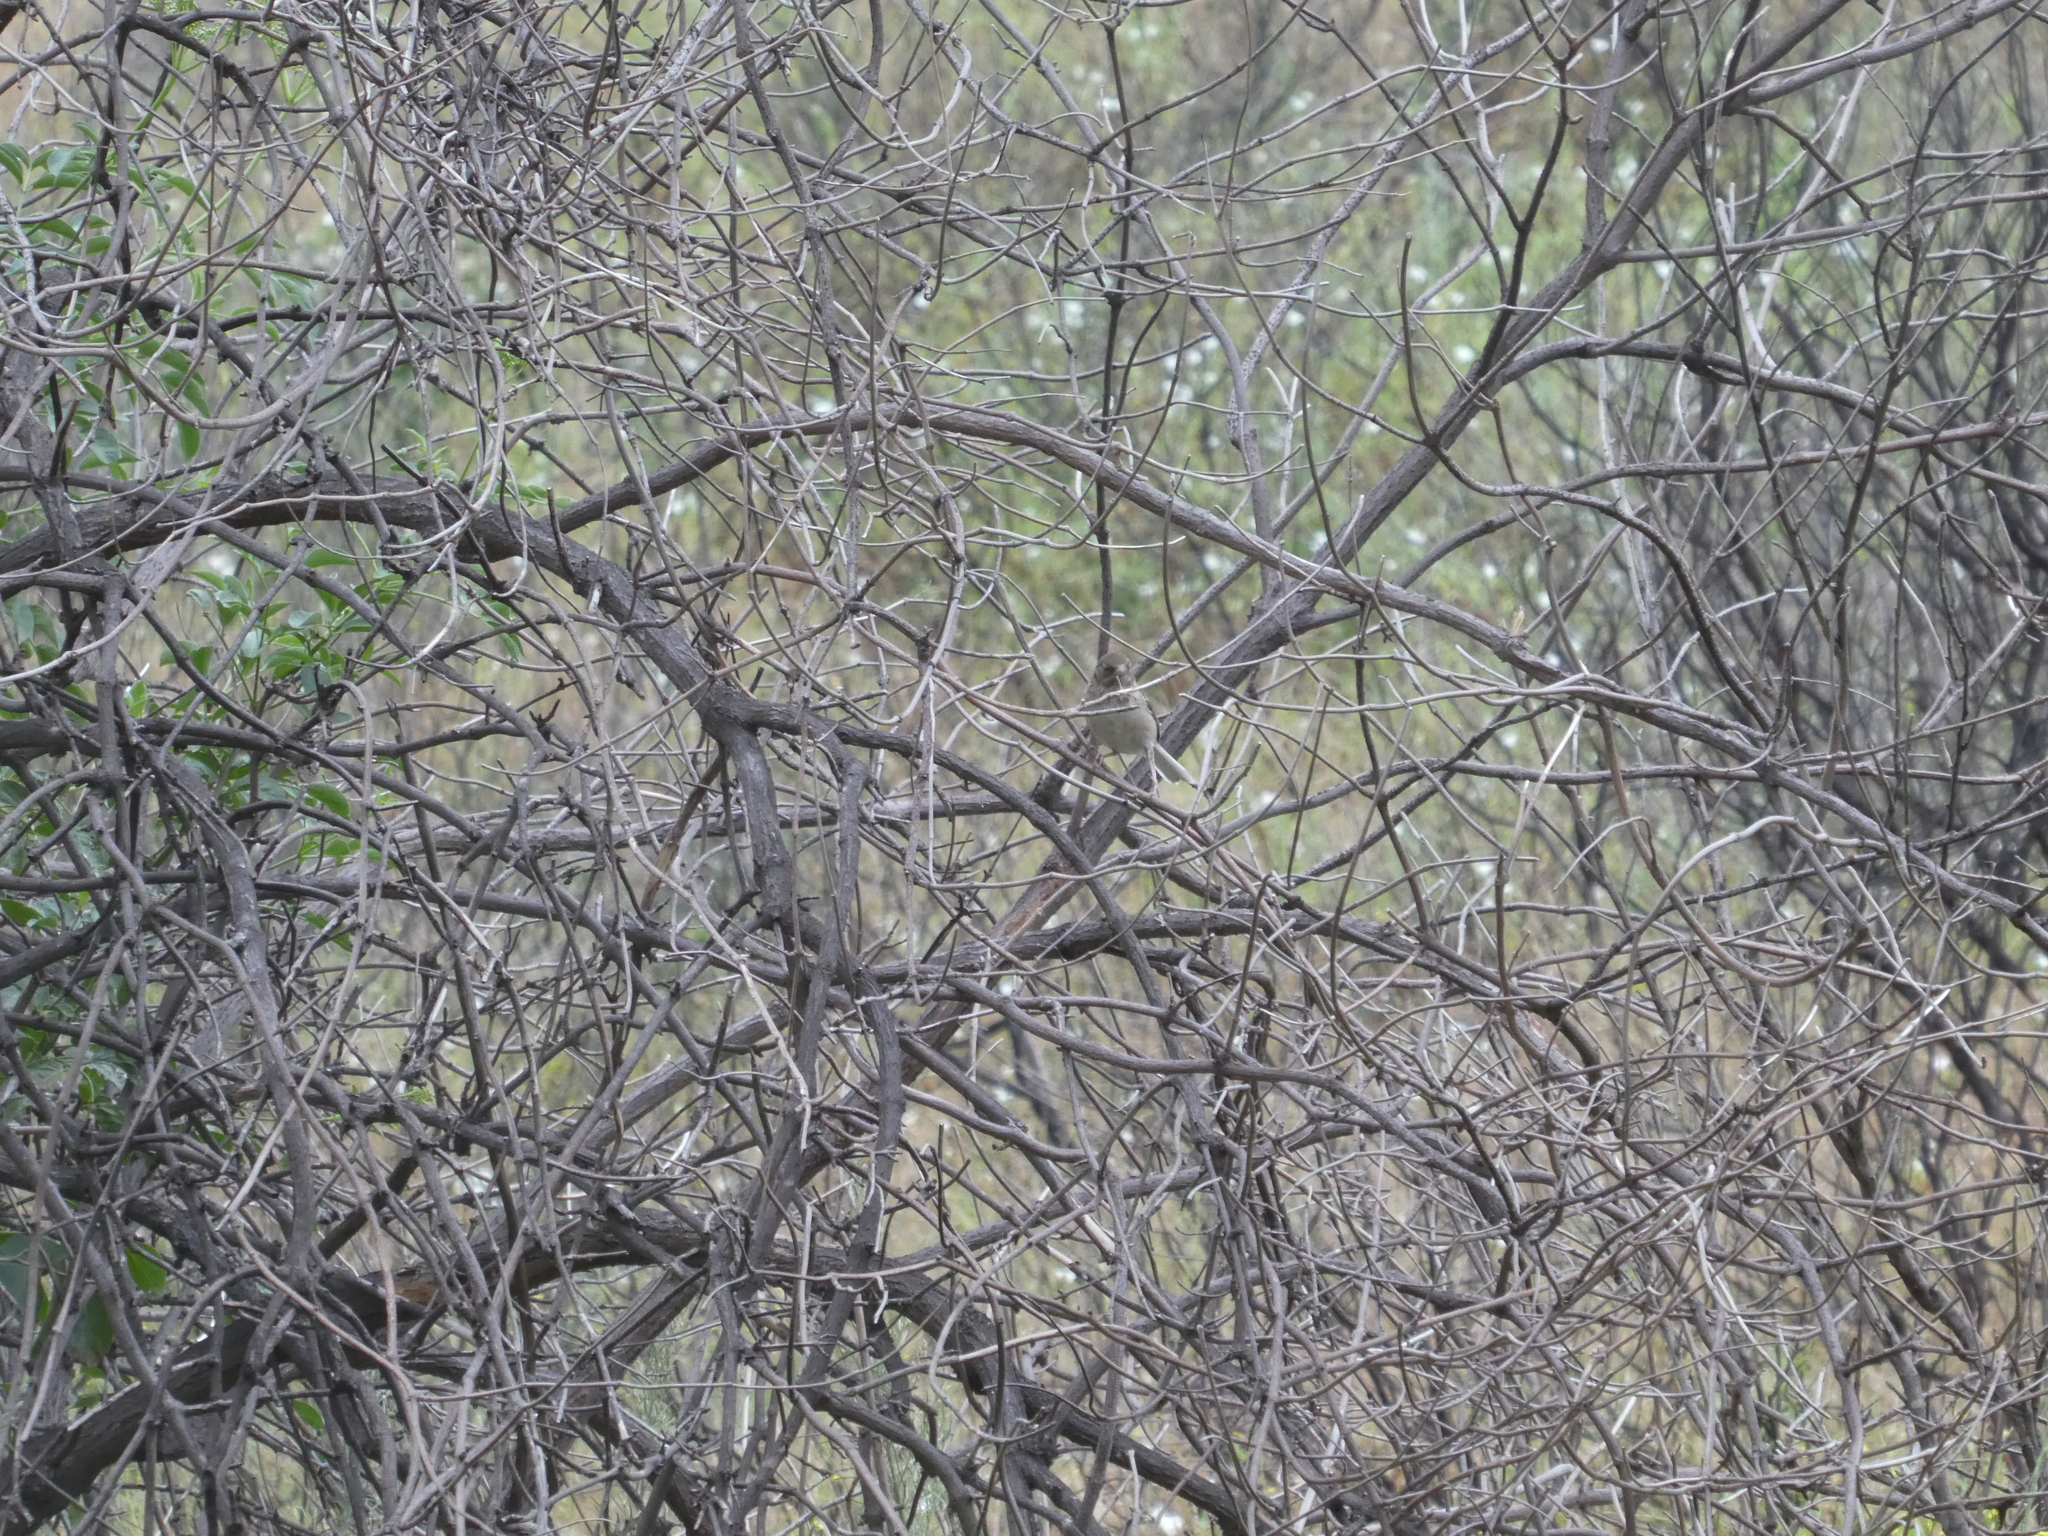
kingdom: Animalia
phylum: Chordata
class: Aves
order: Passeriformes
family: Passerellidae
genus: Junco
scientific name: Junco hyemalis
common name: Dark-eyed junco
